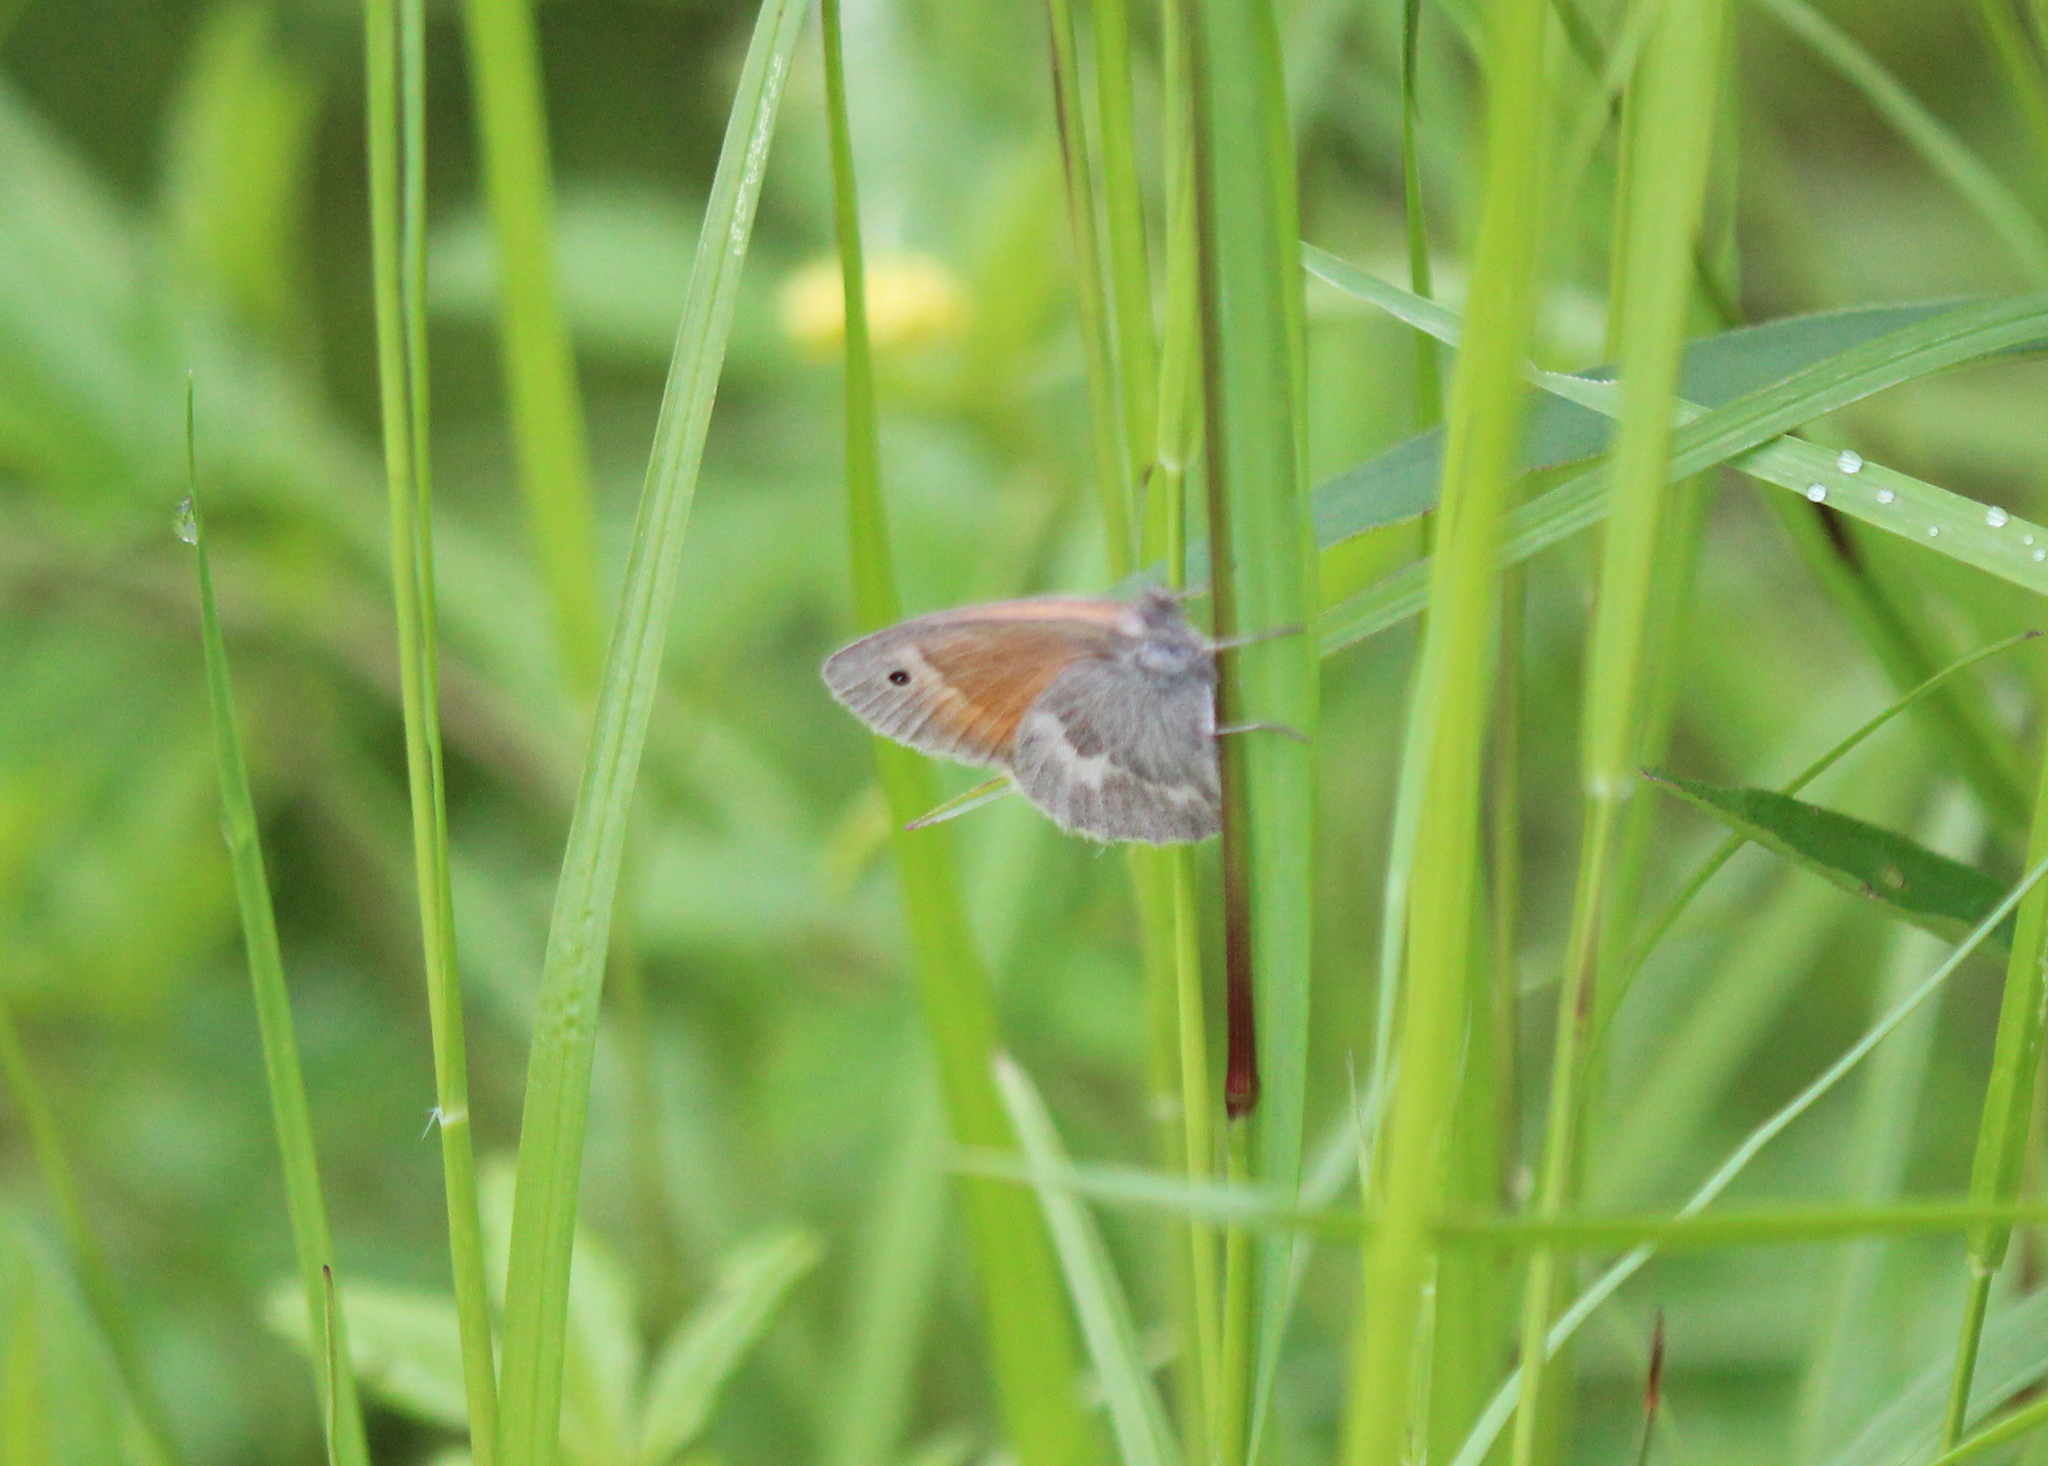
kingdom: Animalia
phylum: Arthropoda
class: Insecta
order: Lepidoptera
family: Nymphalidae
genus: Coenonympha
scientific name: Coenonympha california
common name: Common ringlet
